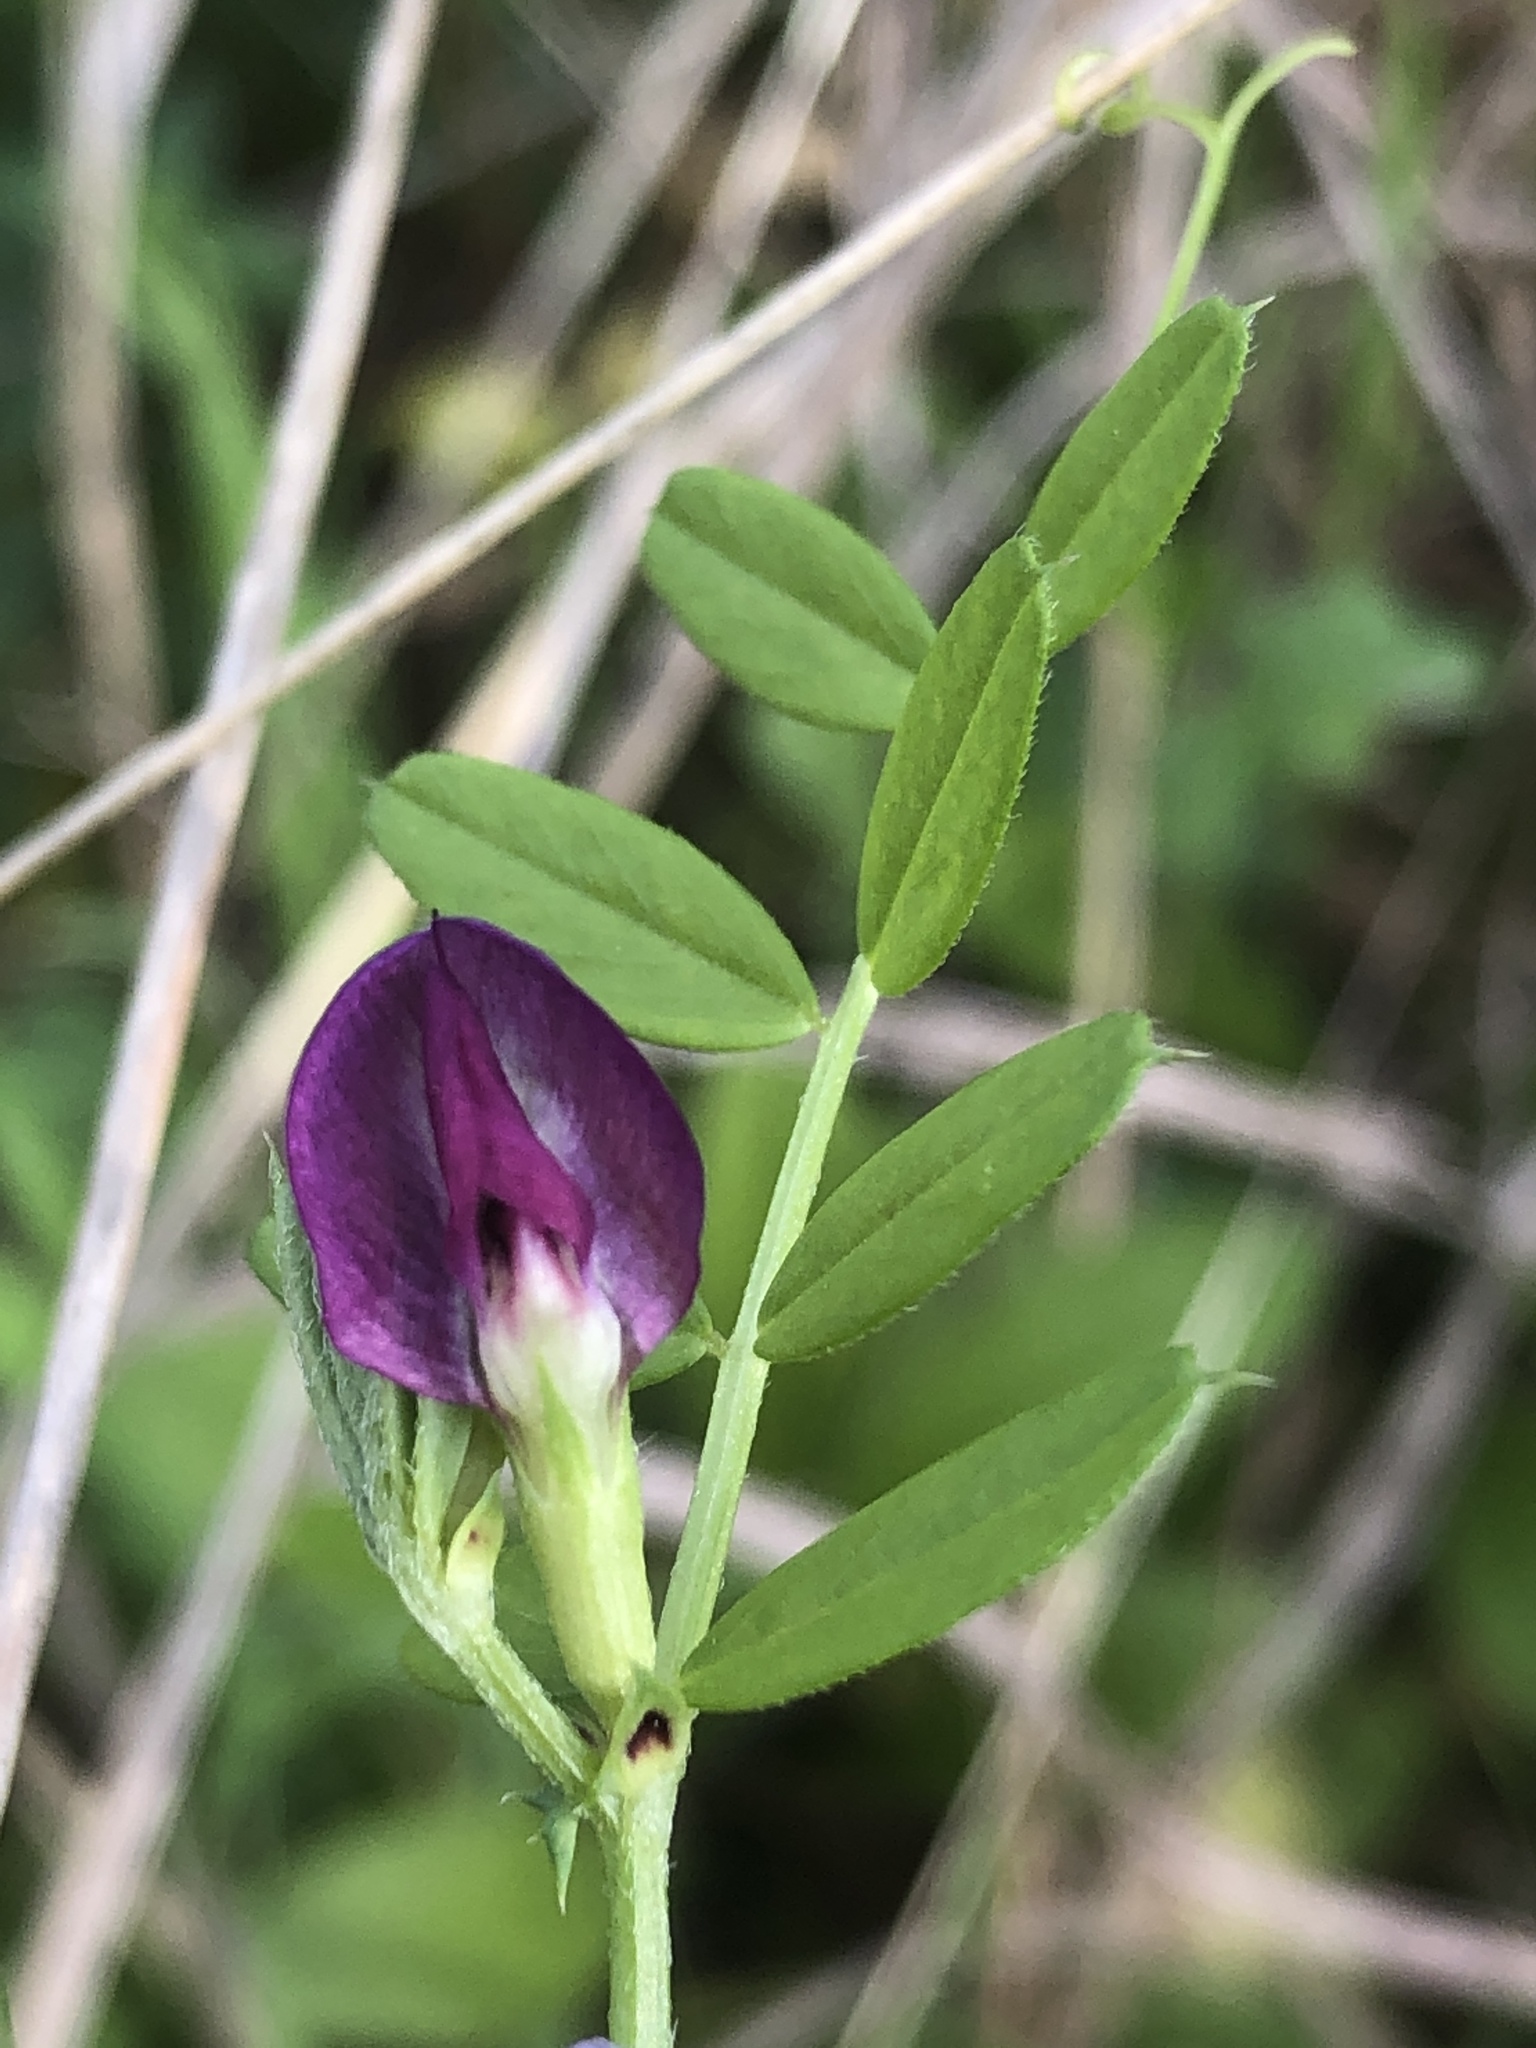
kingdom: Plantae
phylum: Tracheophyta
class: Magnoliopsida
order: Fabales
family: Fabaceae
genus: Vicia
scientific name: Vicia sativa
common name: Garden vetch
